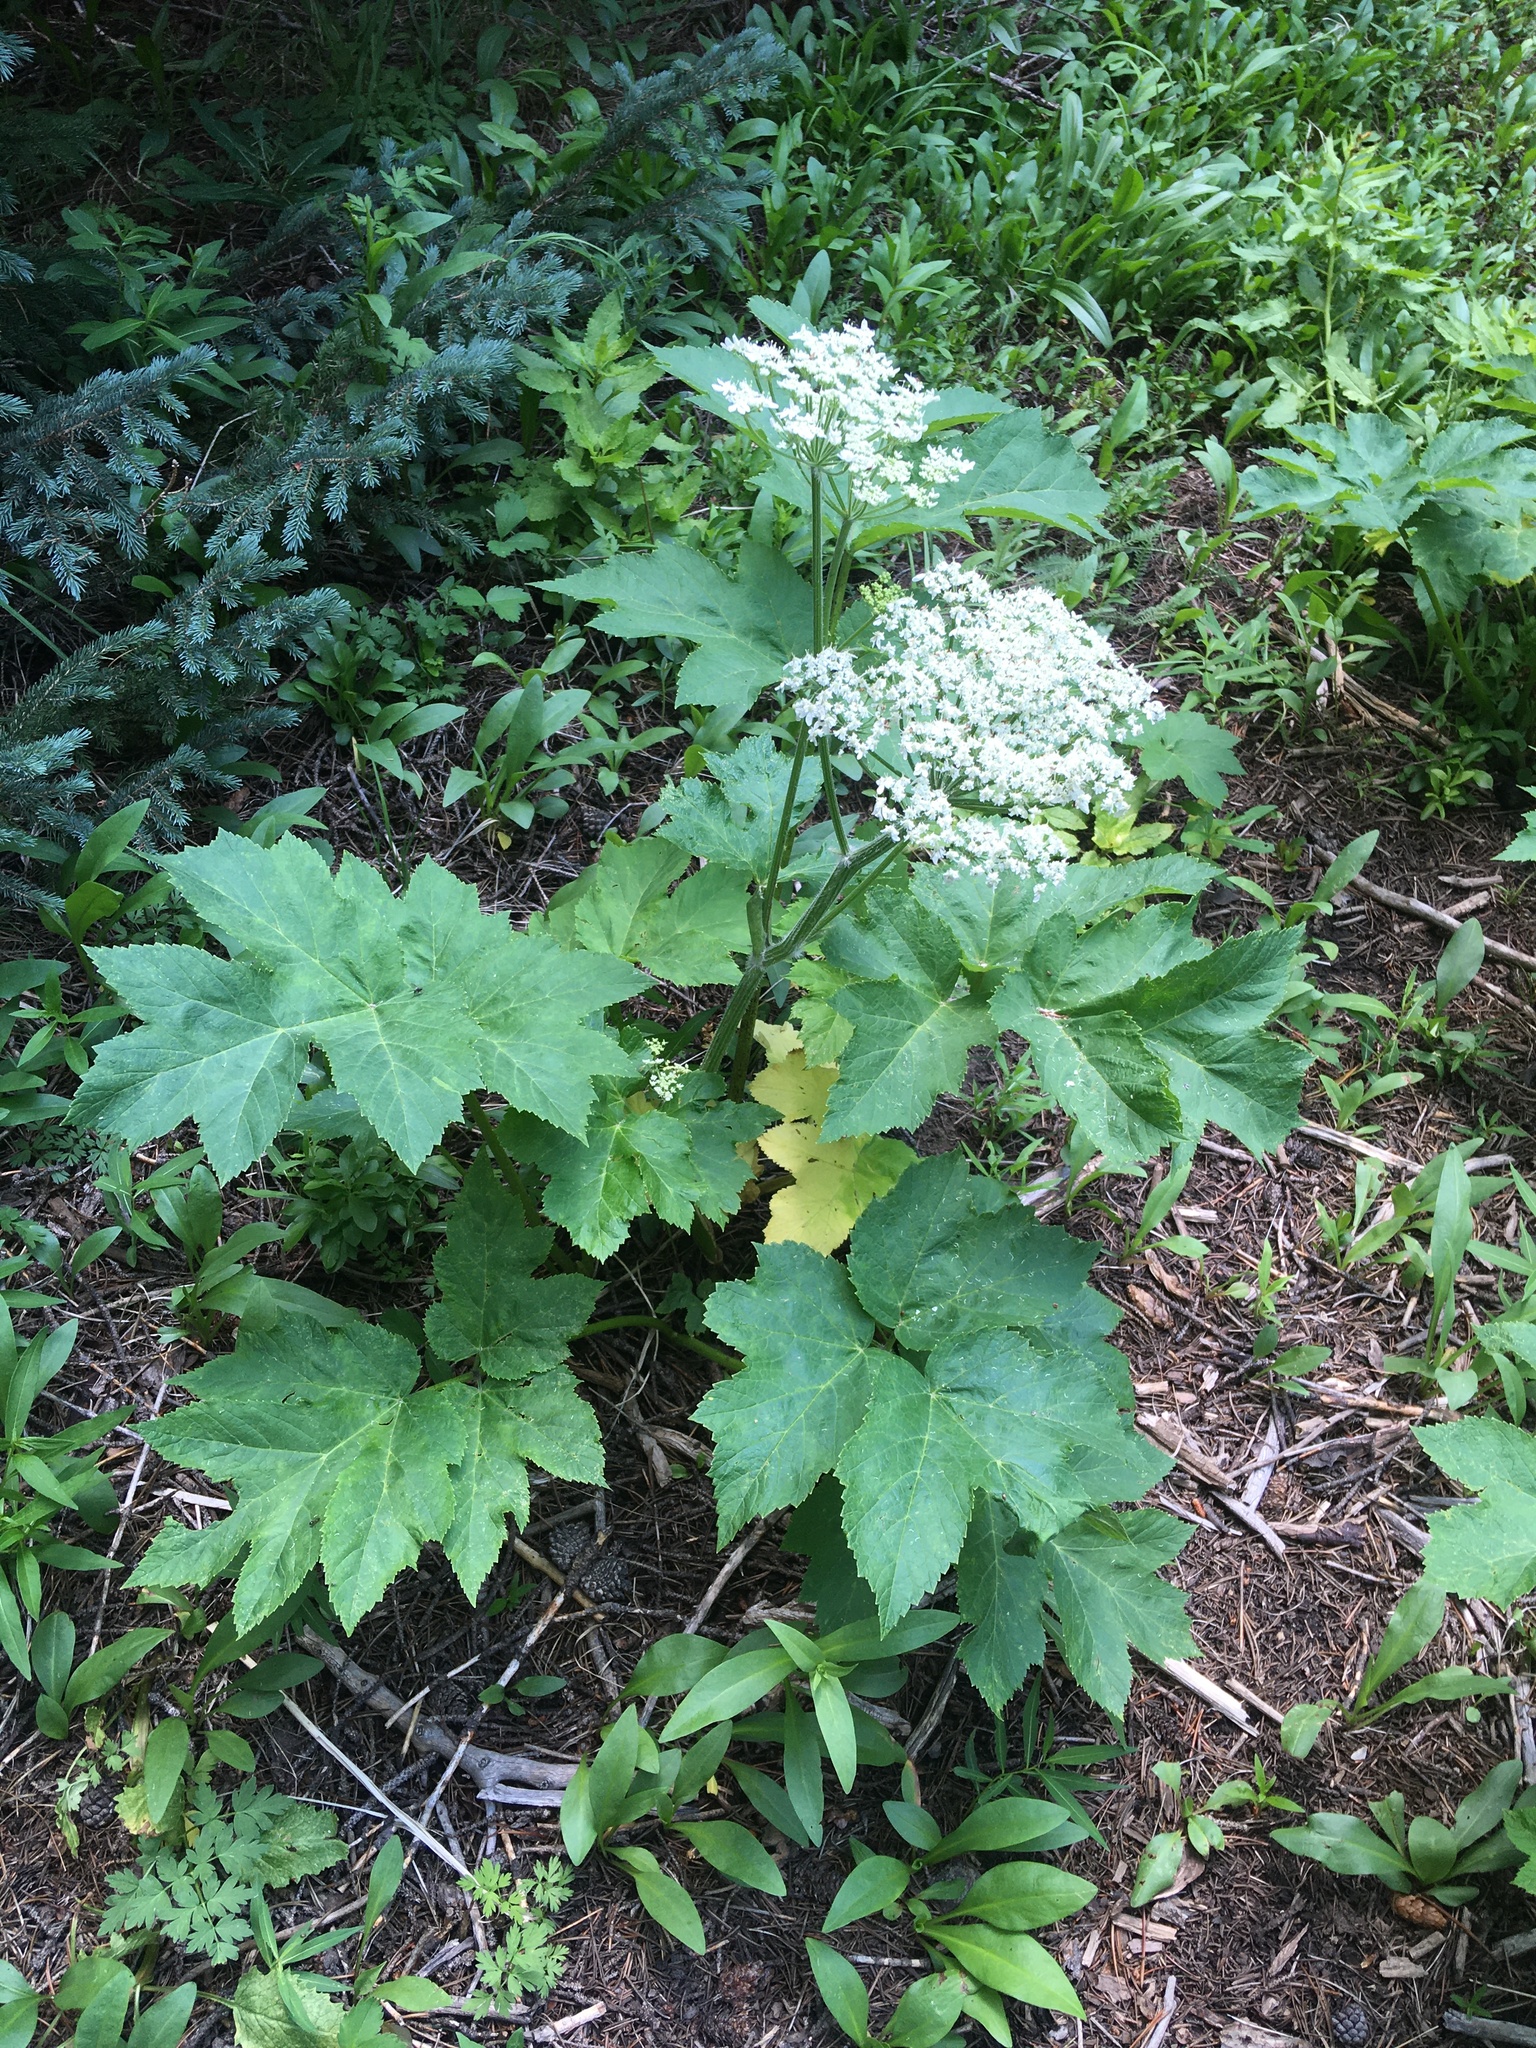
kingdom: Plantae
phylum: Tracheophyta
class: Magnoliopsida
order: Apiales
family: Apiaceae
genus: Heracleum
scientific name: Heracleum maximum
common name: American cow parsnip
